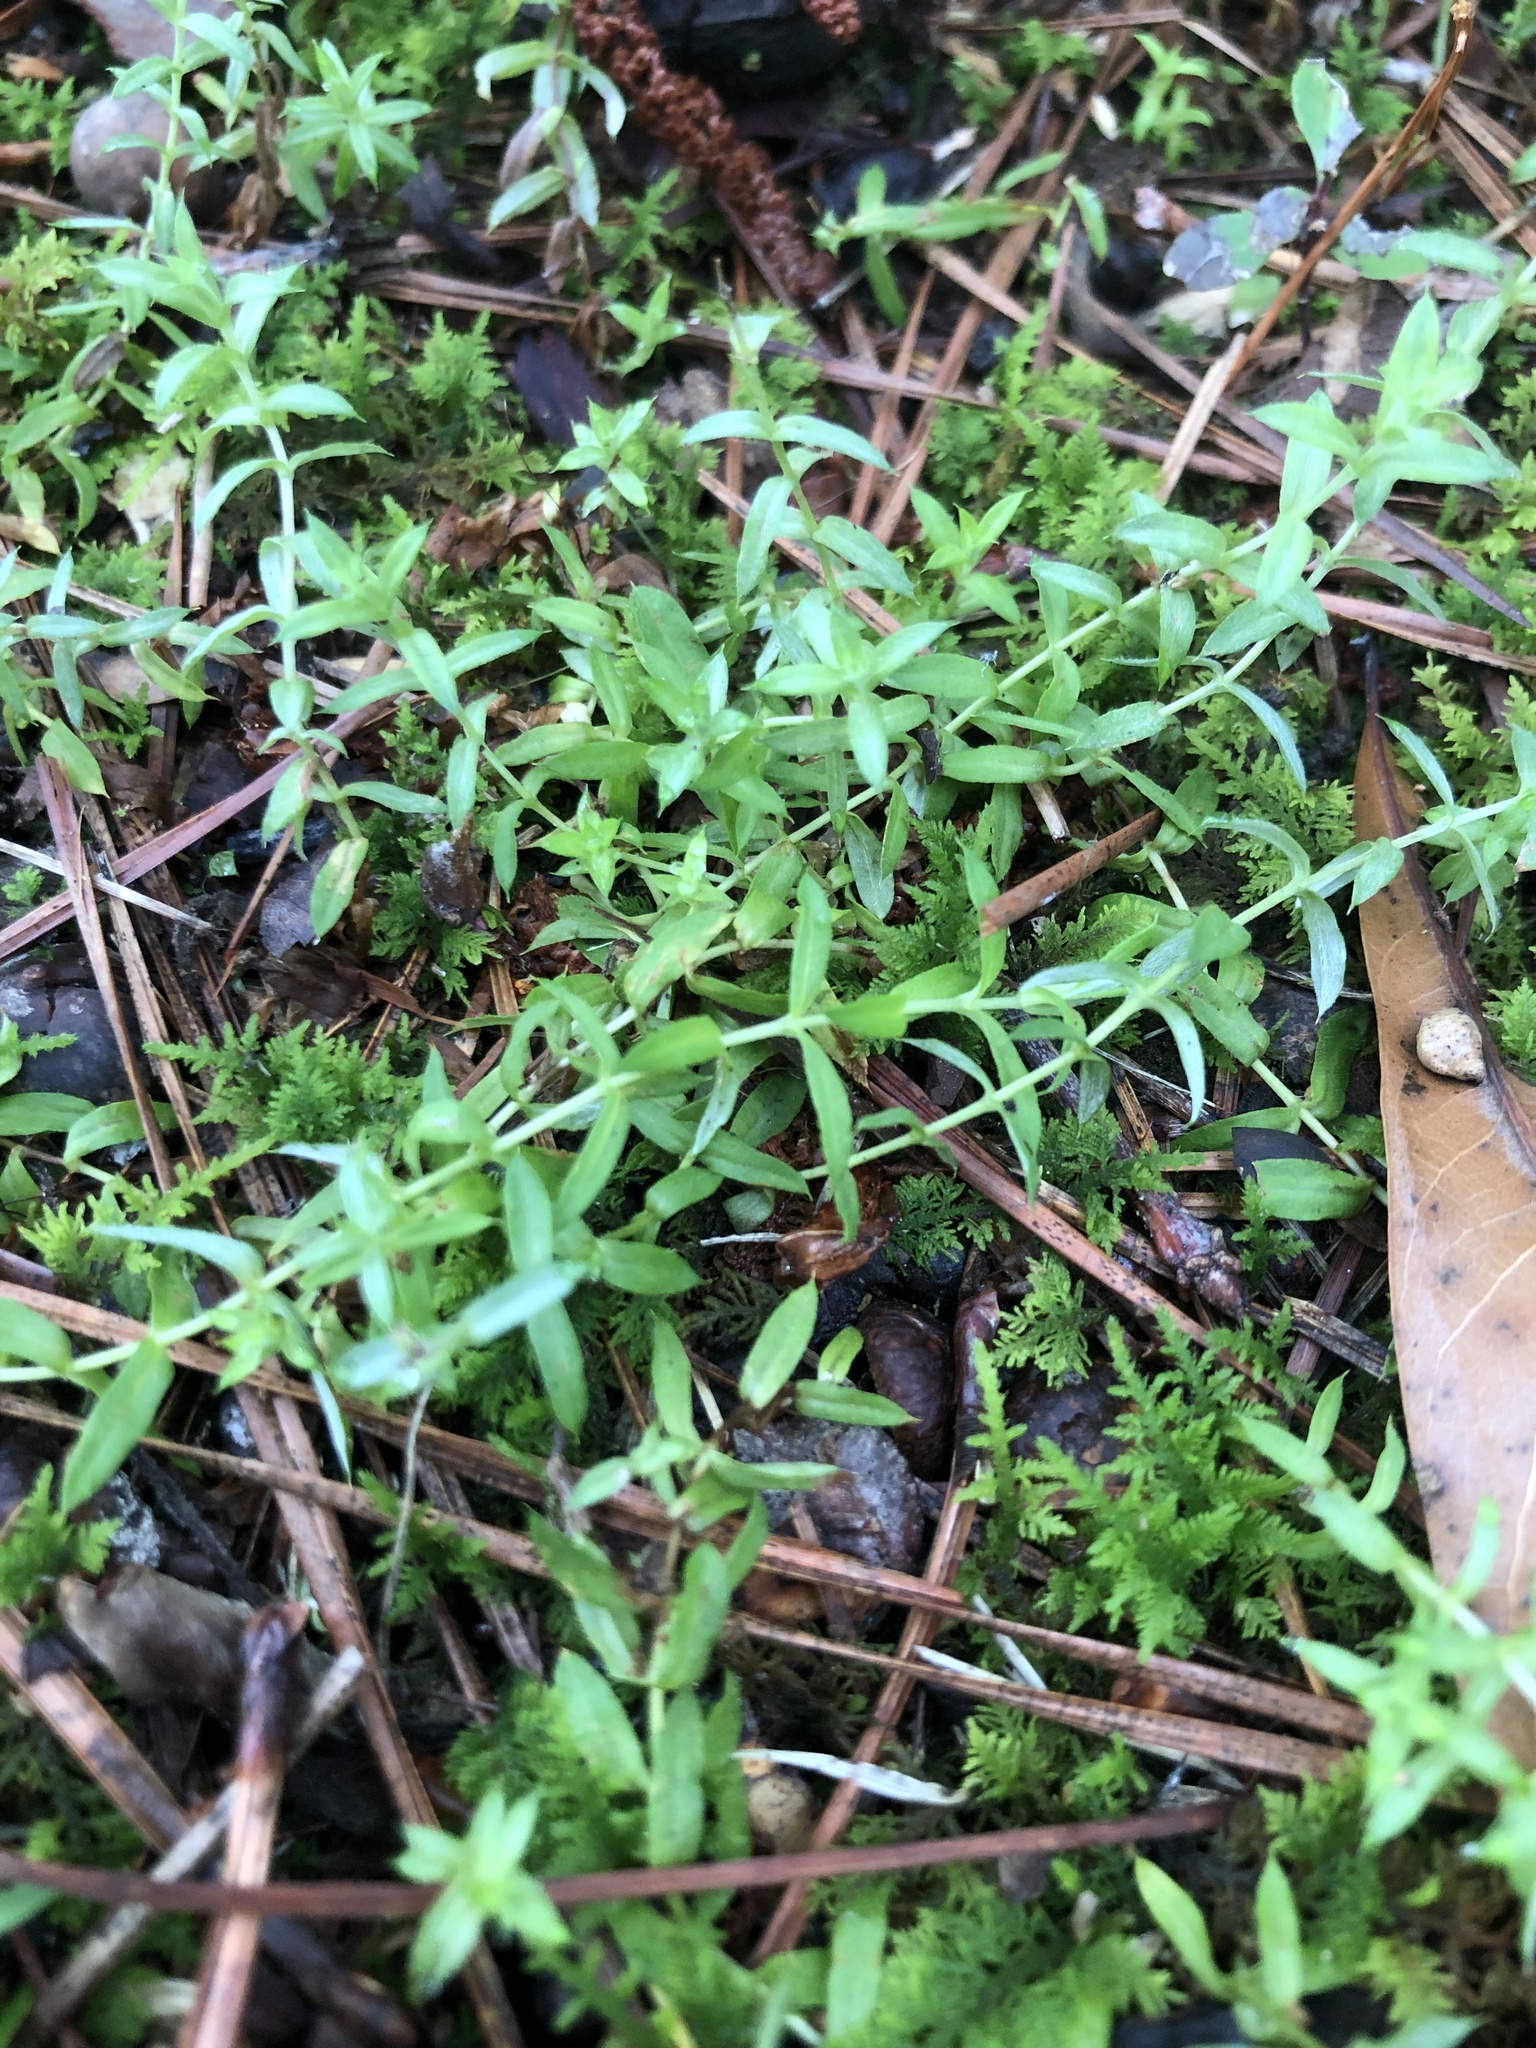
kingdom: Plantae
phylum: Tracheophyta
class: Magnoliopsida
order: Asterales
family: Asteraceae
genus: Chevreulia
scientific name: Chevreulia acuminata
